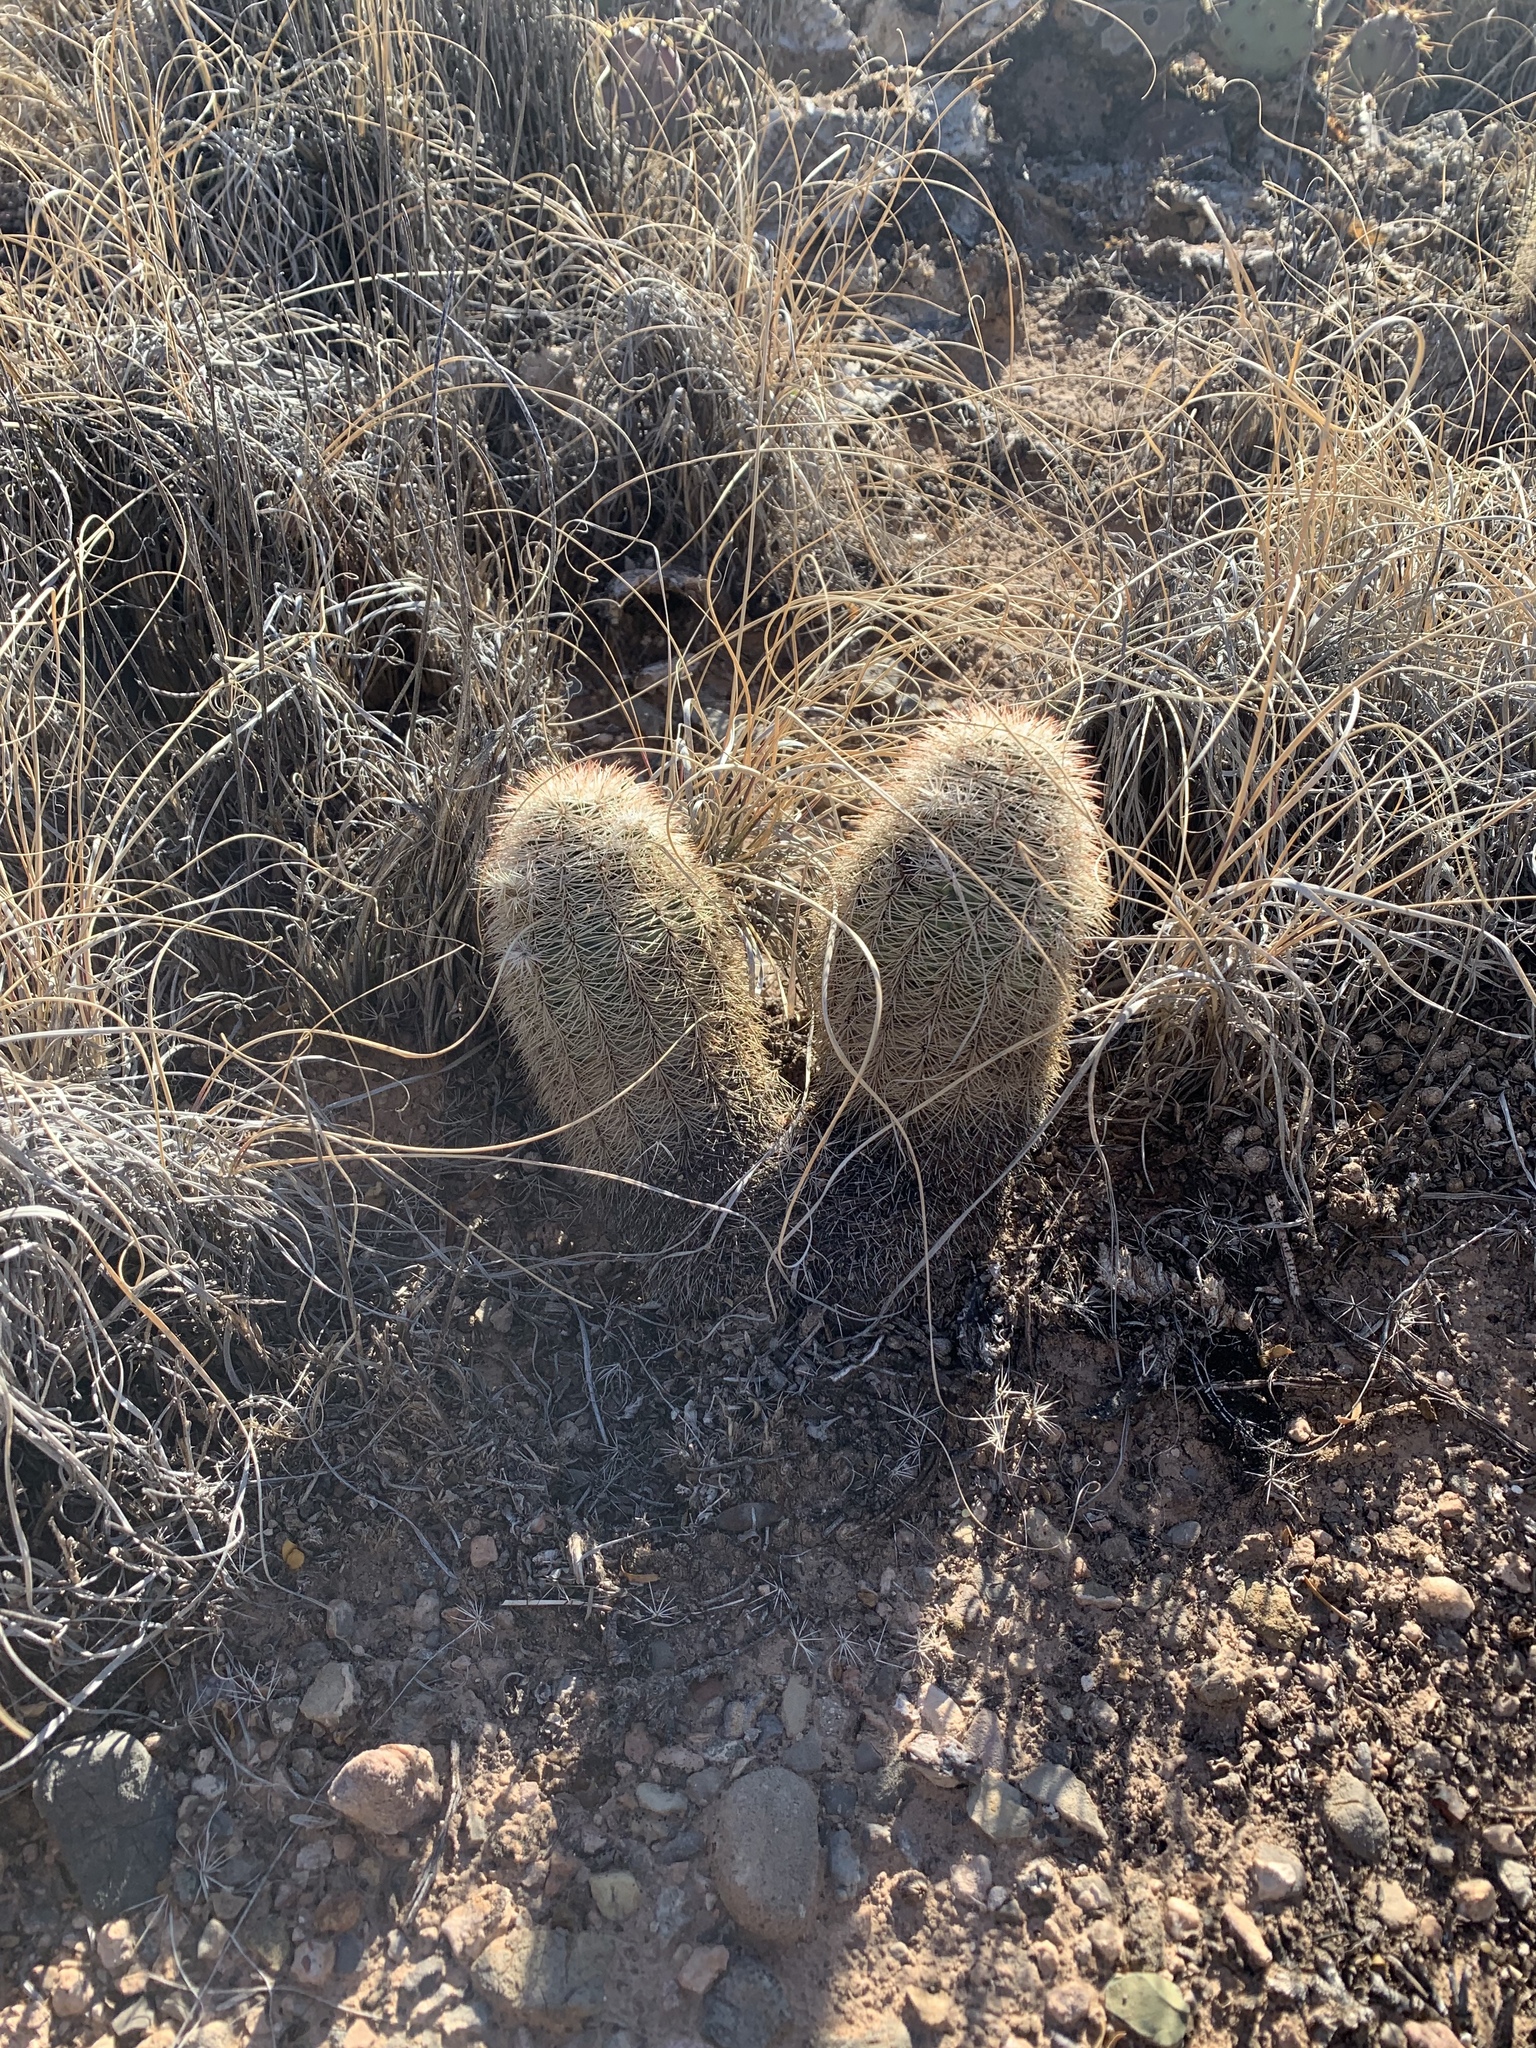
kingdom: Plantae
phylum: Tracheophyta
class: Magnoliopsida
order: Caryophyllales
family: Cactaceae
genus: Echinocereus
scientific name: Echinocereus dasyacanthus
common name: Spiny hedgehog cactus
